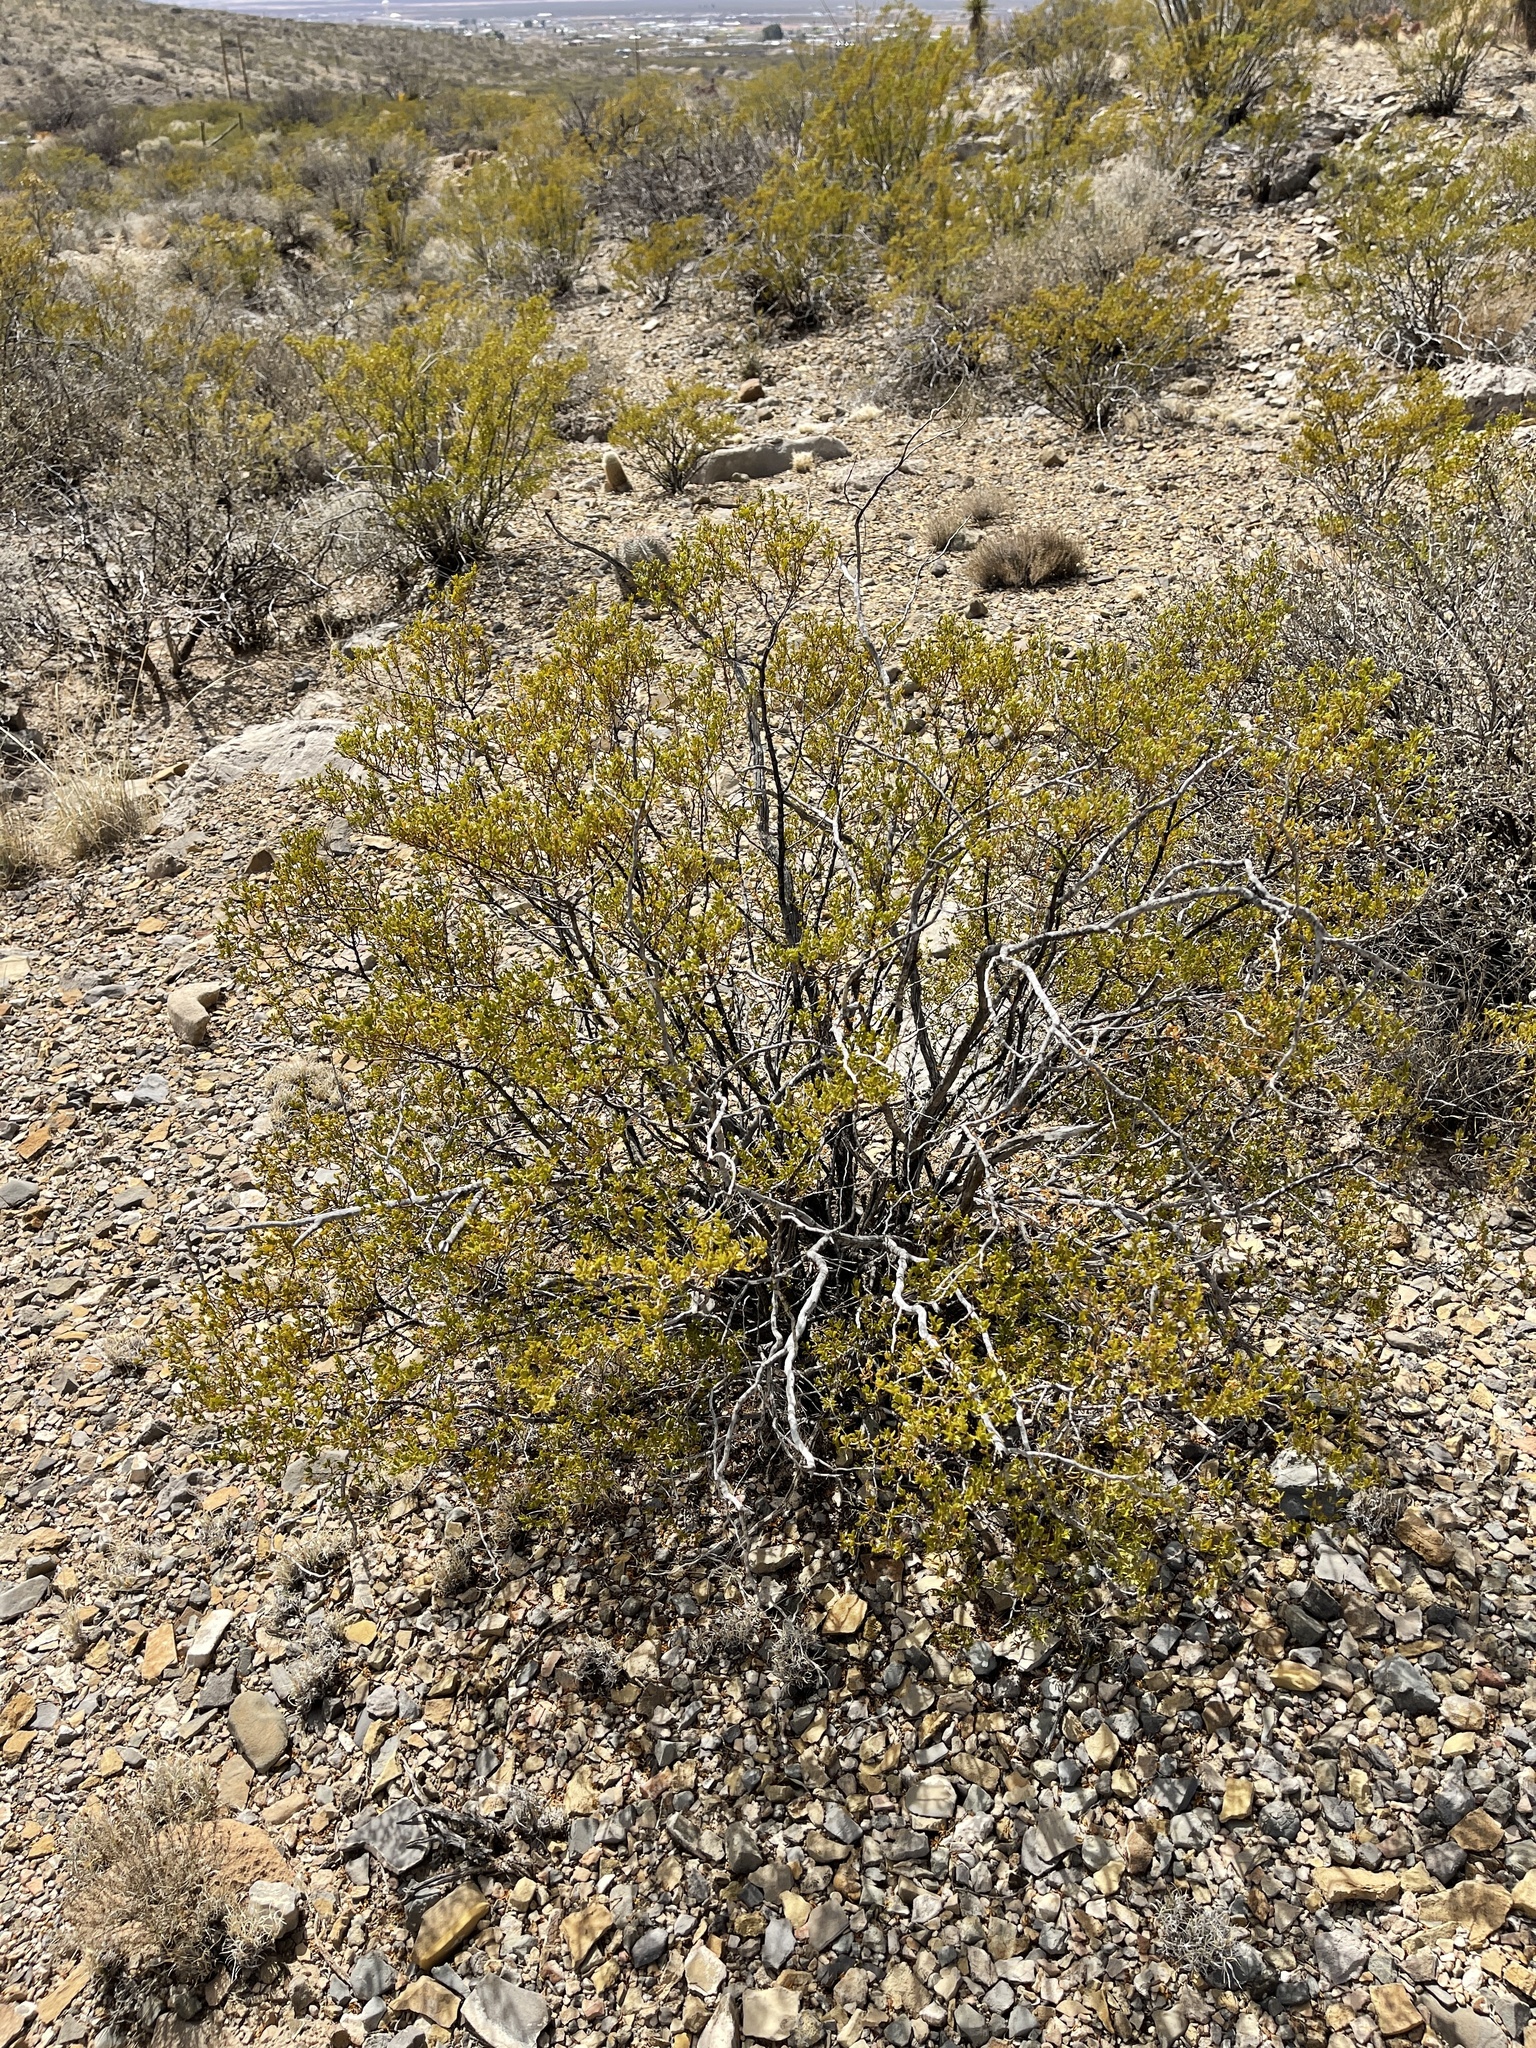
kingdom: Plantae
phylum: Tracheophyta
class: Magnoliopsida
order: Zygophyllales
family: Zygophyllaceae
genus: Larrea
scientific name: Larrea tridentata
